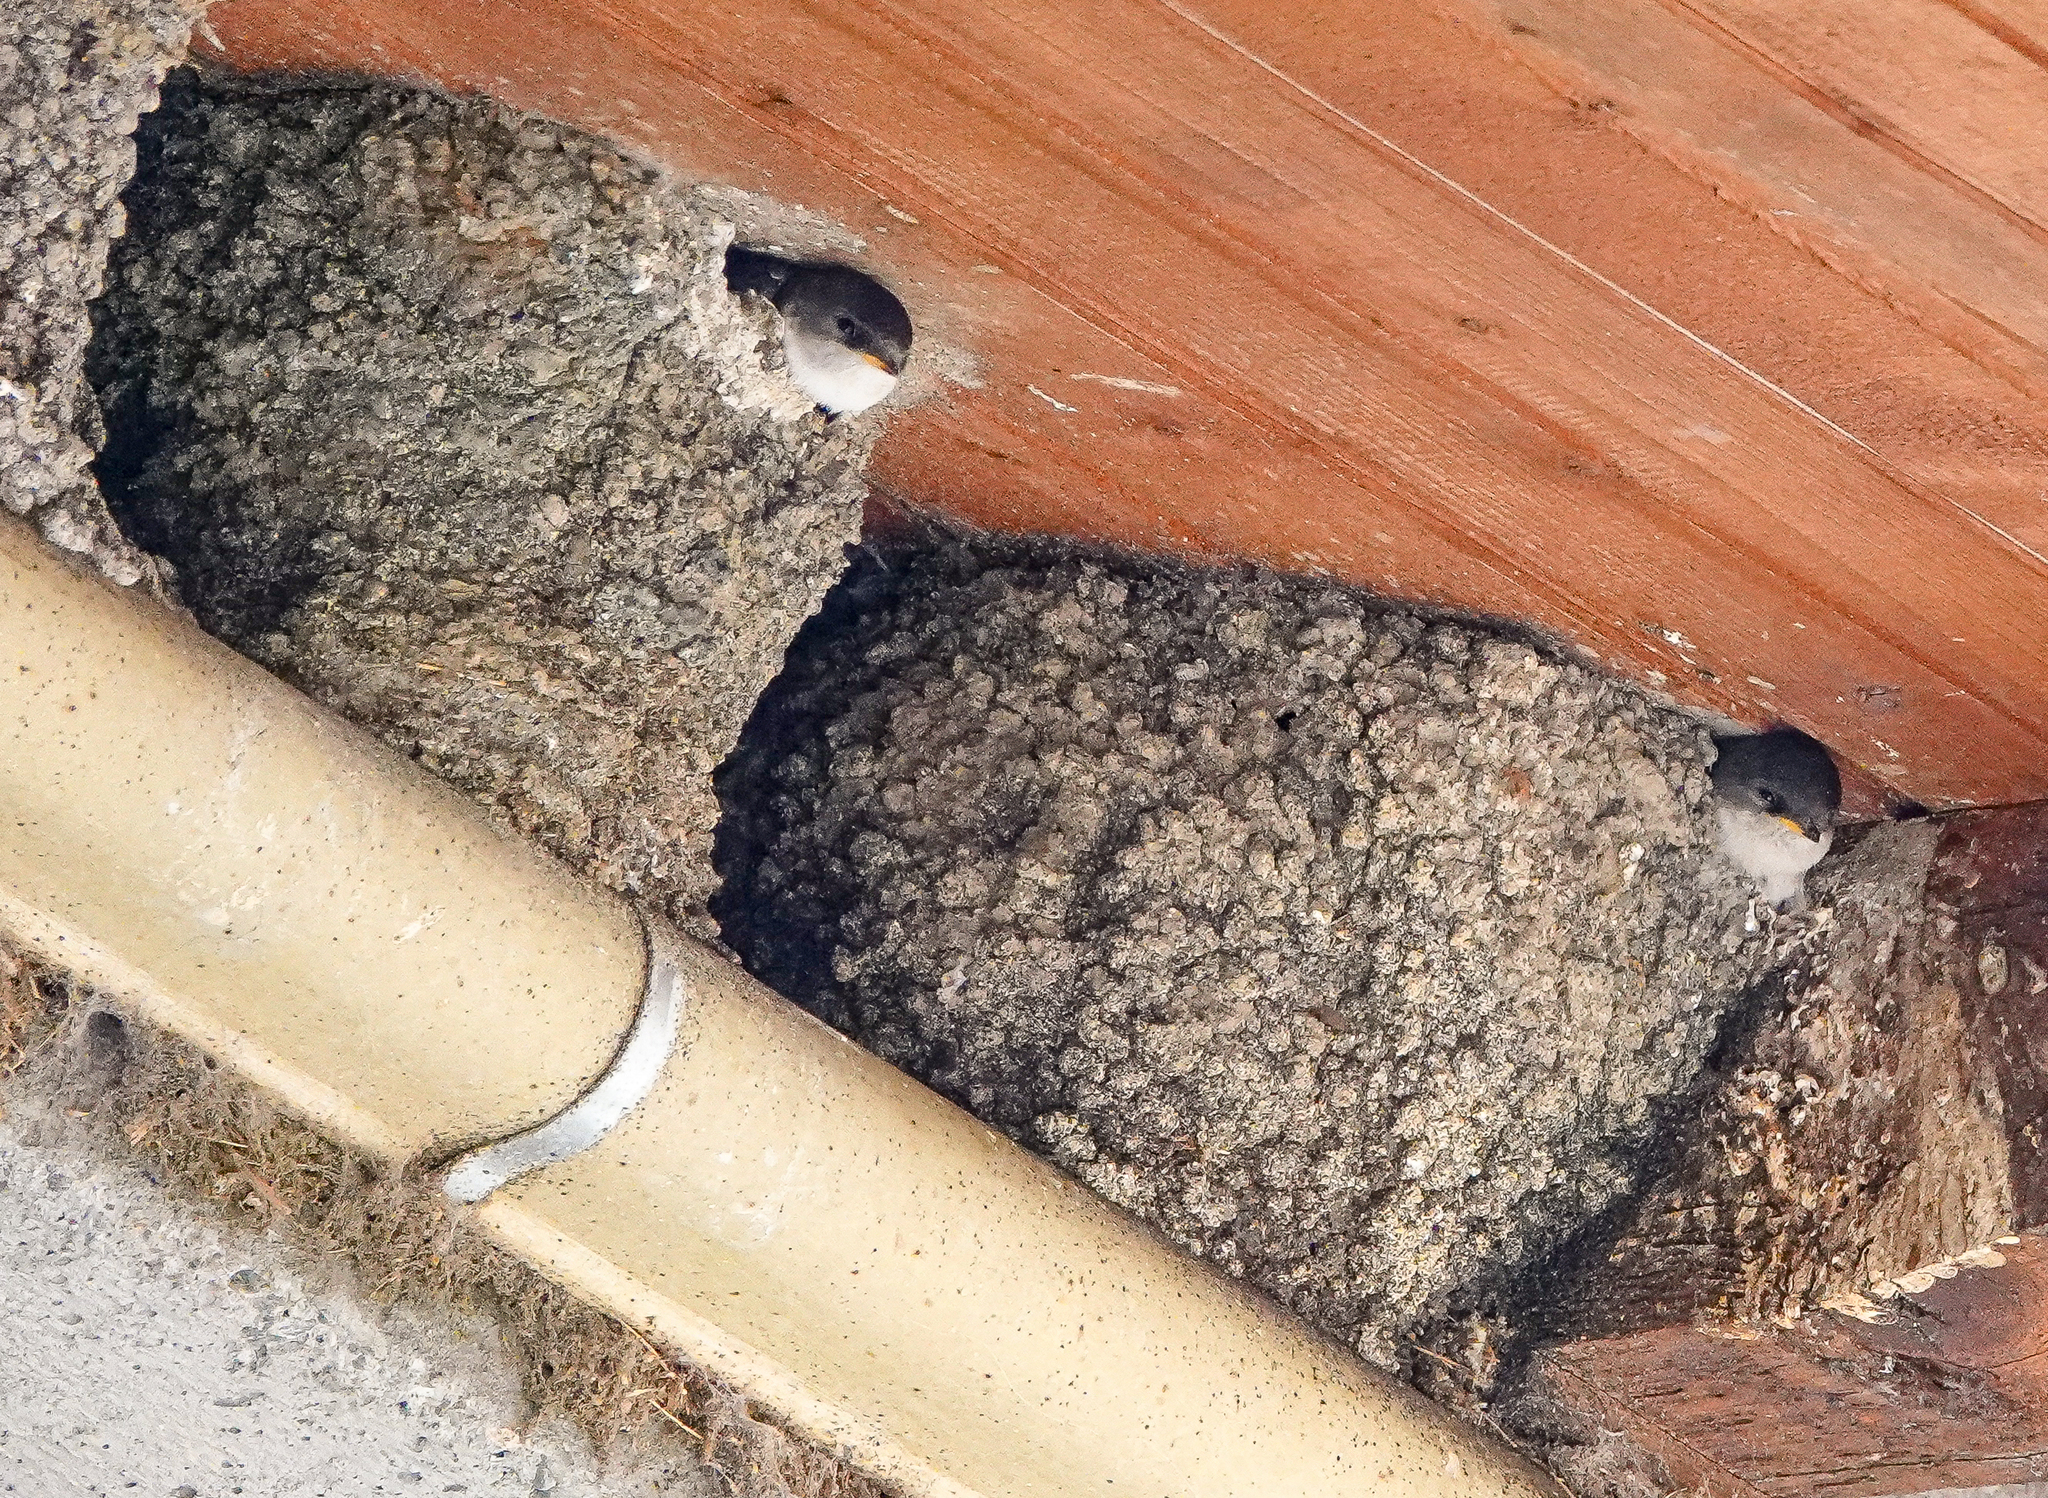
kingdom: Animalia
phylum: Chordata
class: Aves
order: Passeriformes
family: Hirundinidae
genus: Delichon
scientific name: Delichon urbicum
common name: Common house martin
